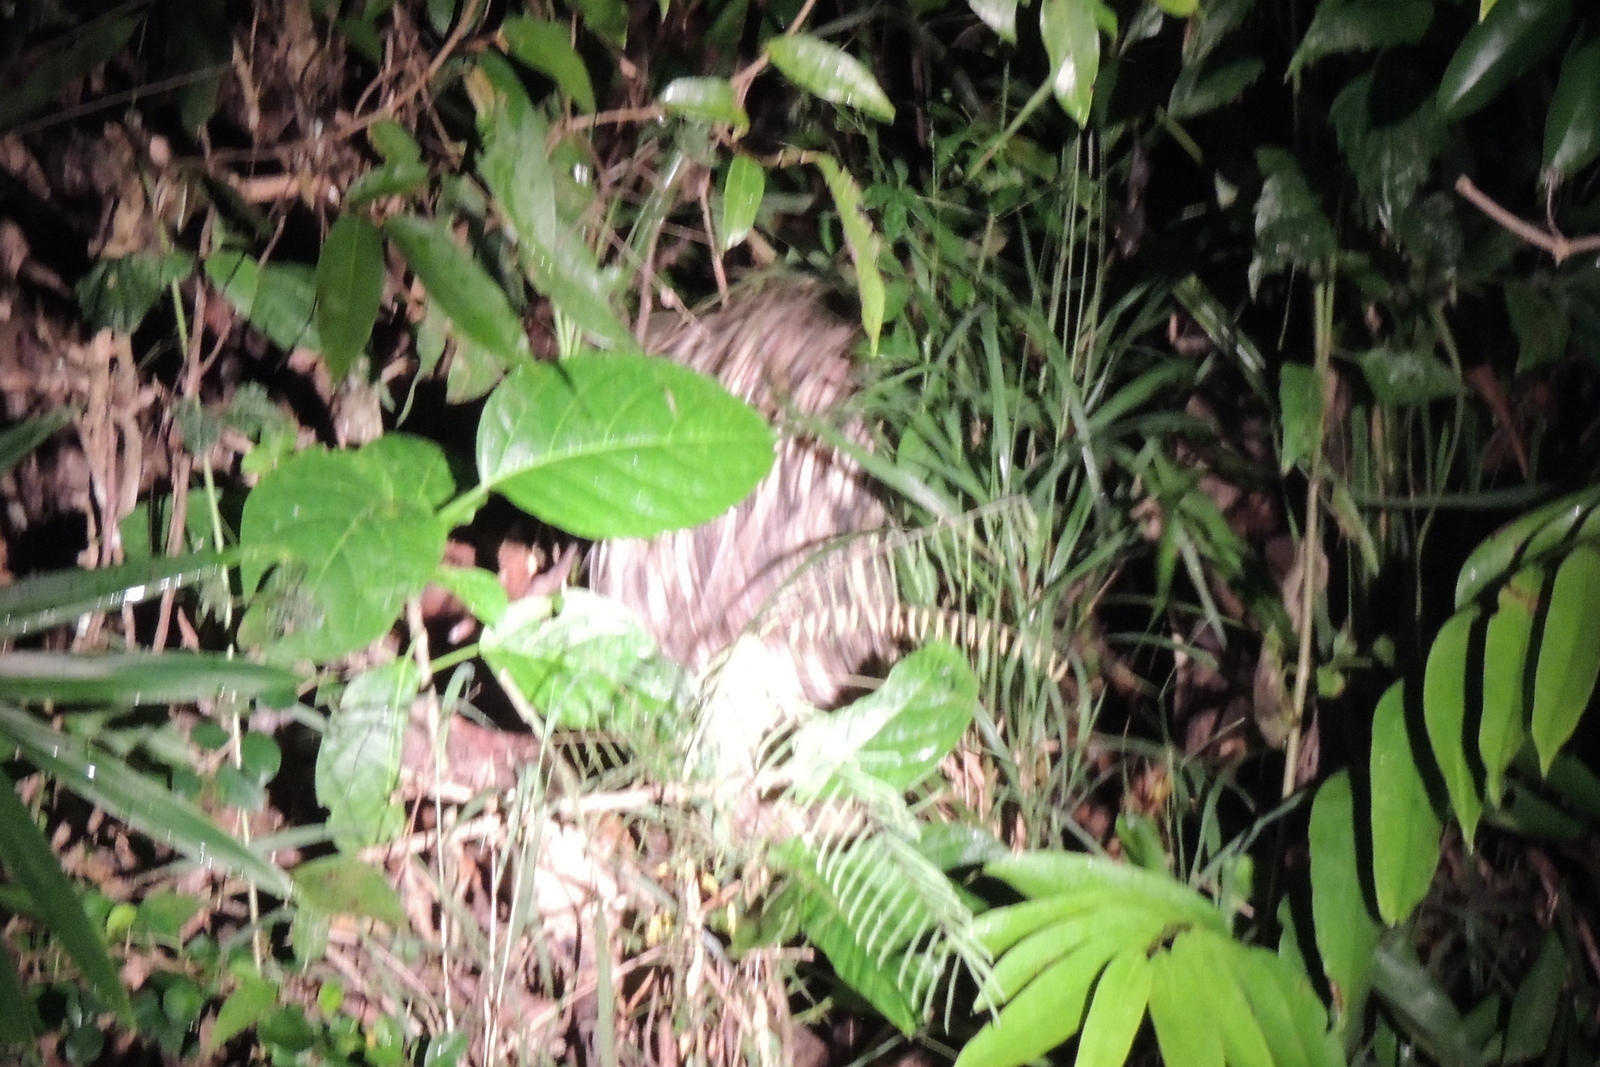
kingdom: Animalia
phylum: Chordata
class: Mammalia
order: Rodentia
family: Hystricidae
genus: Hystrix
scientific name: Hystrix brachyura
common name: Malayan porcupine
